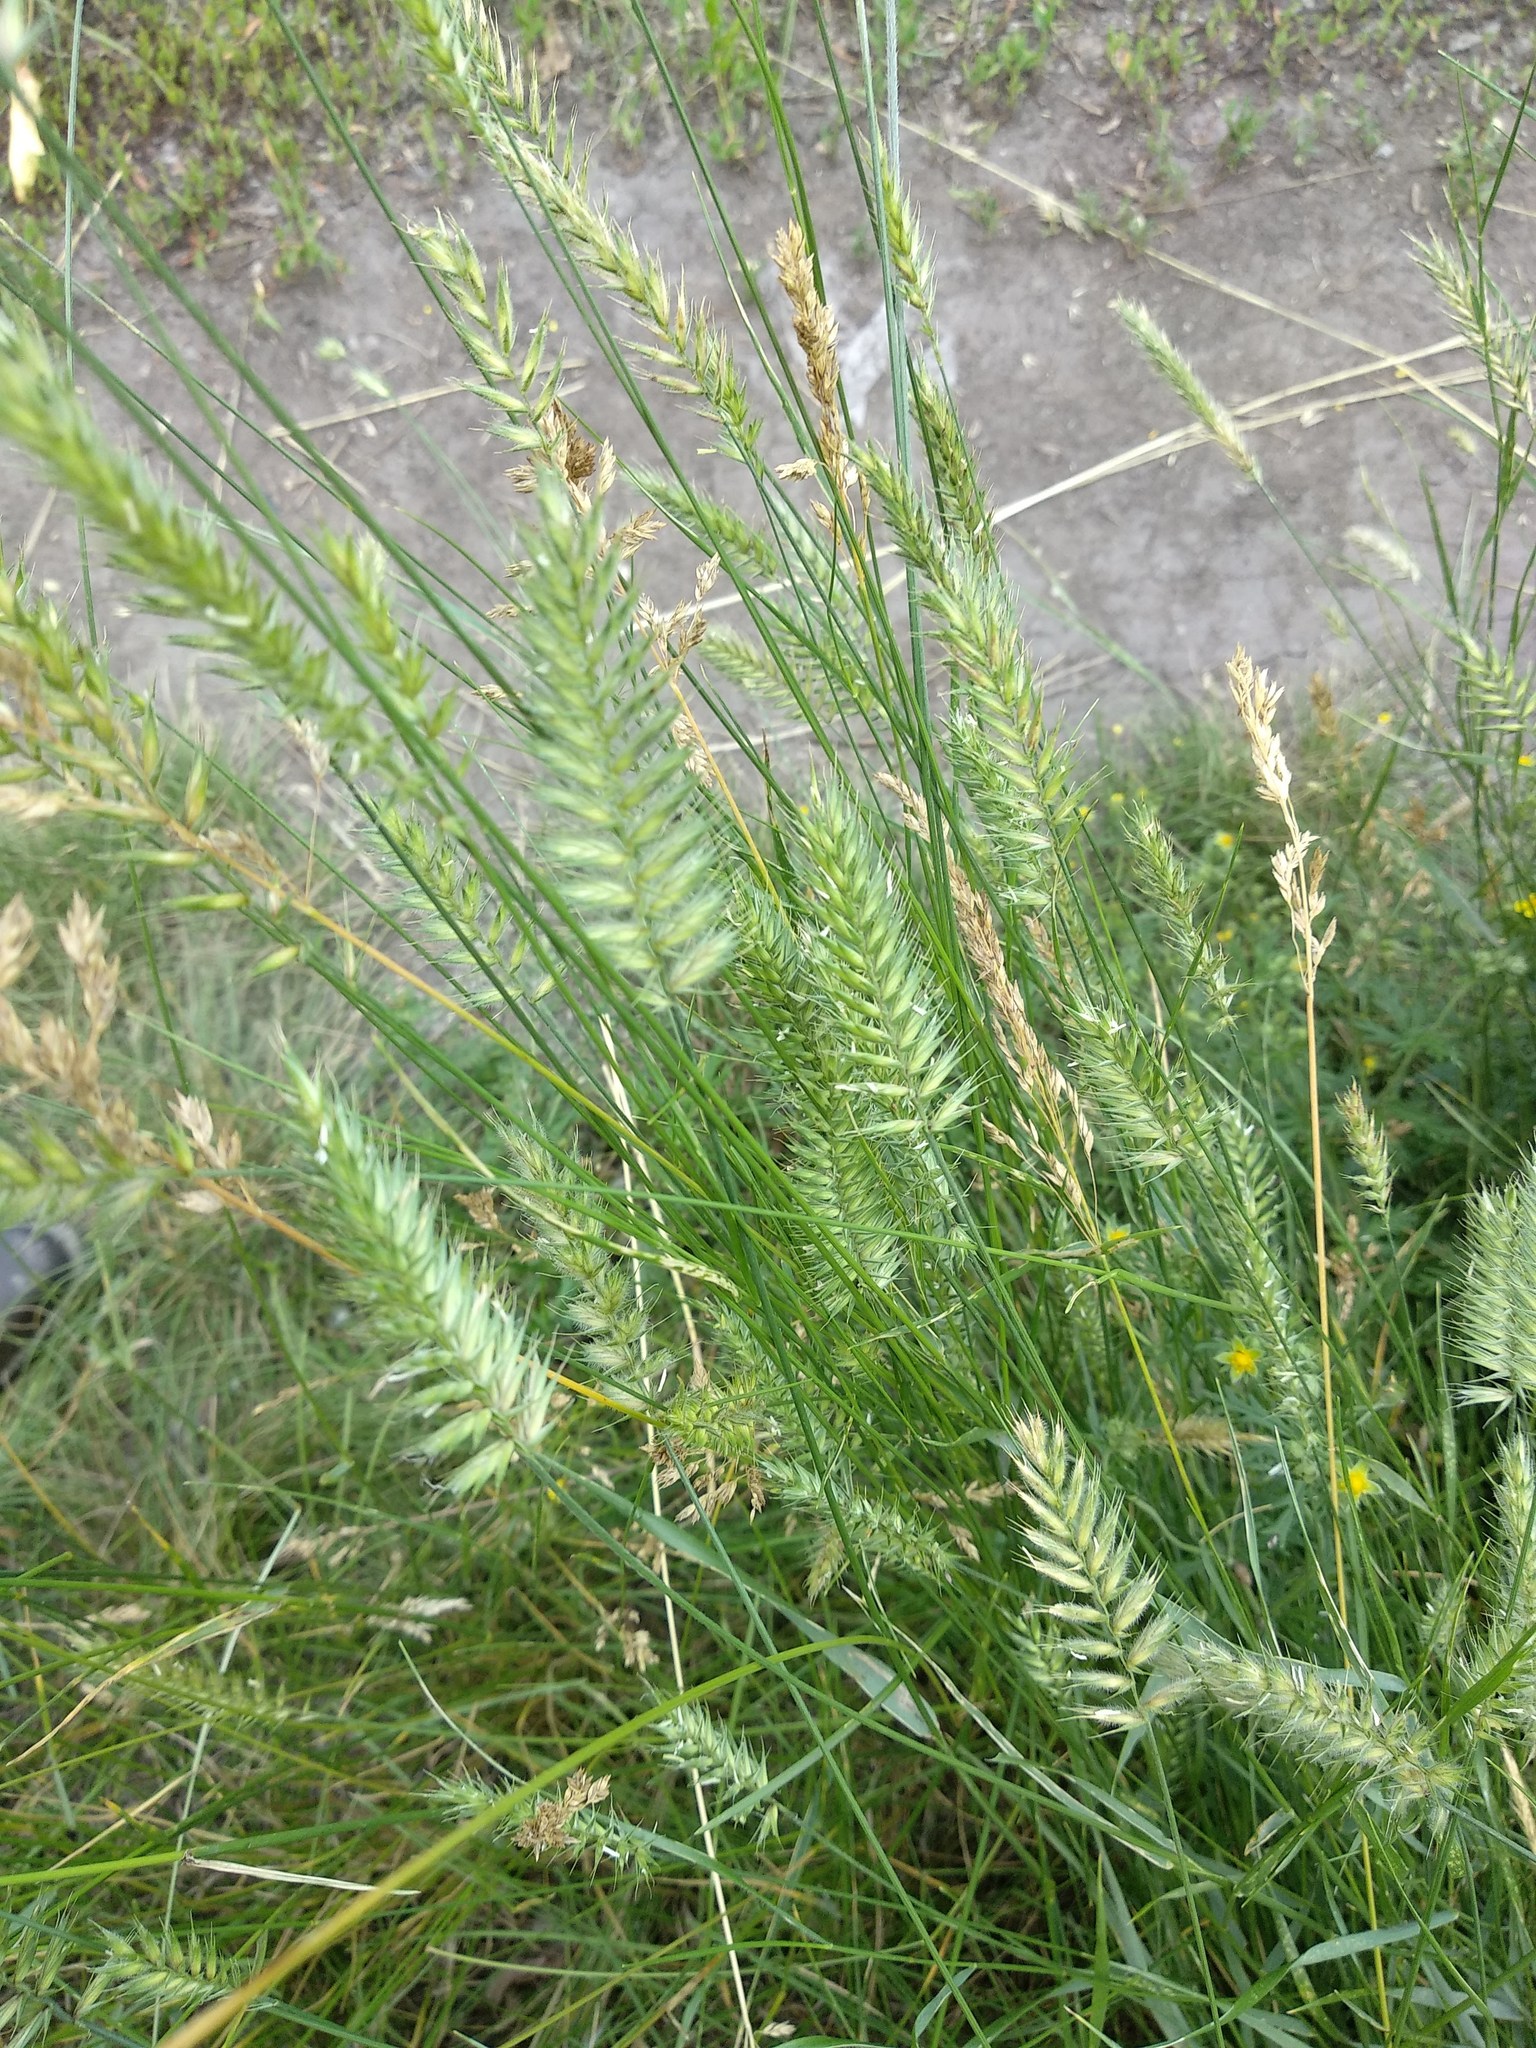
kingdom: Plantae
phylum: Tracheophyta
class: Liliopsida
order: Poales
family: Poaceae
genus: Agropyron
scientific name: Agropyron cristatum
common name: Crested wheatgrass
